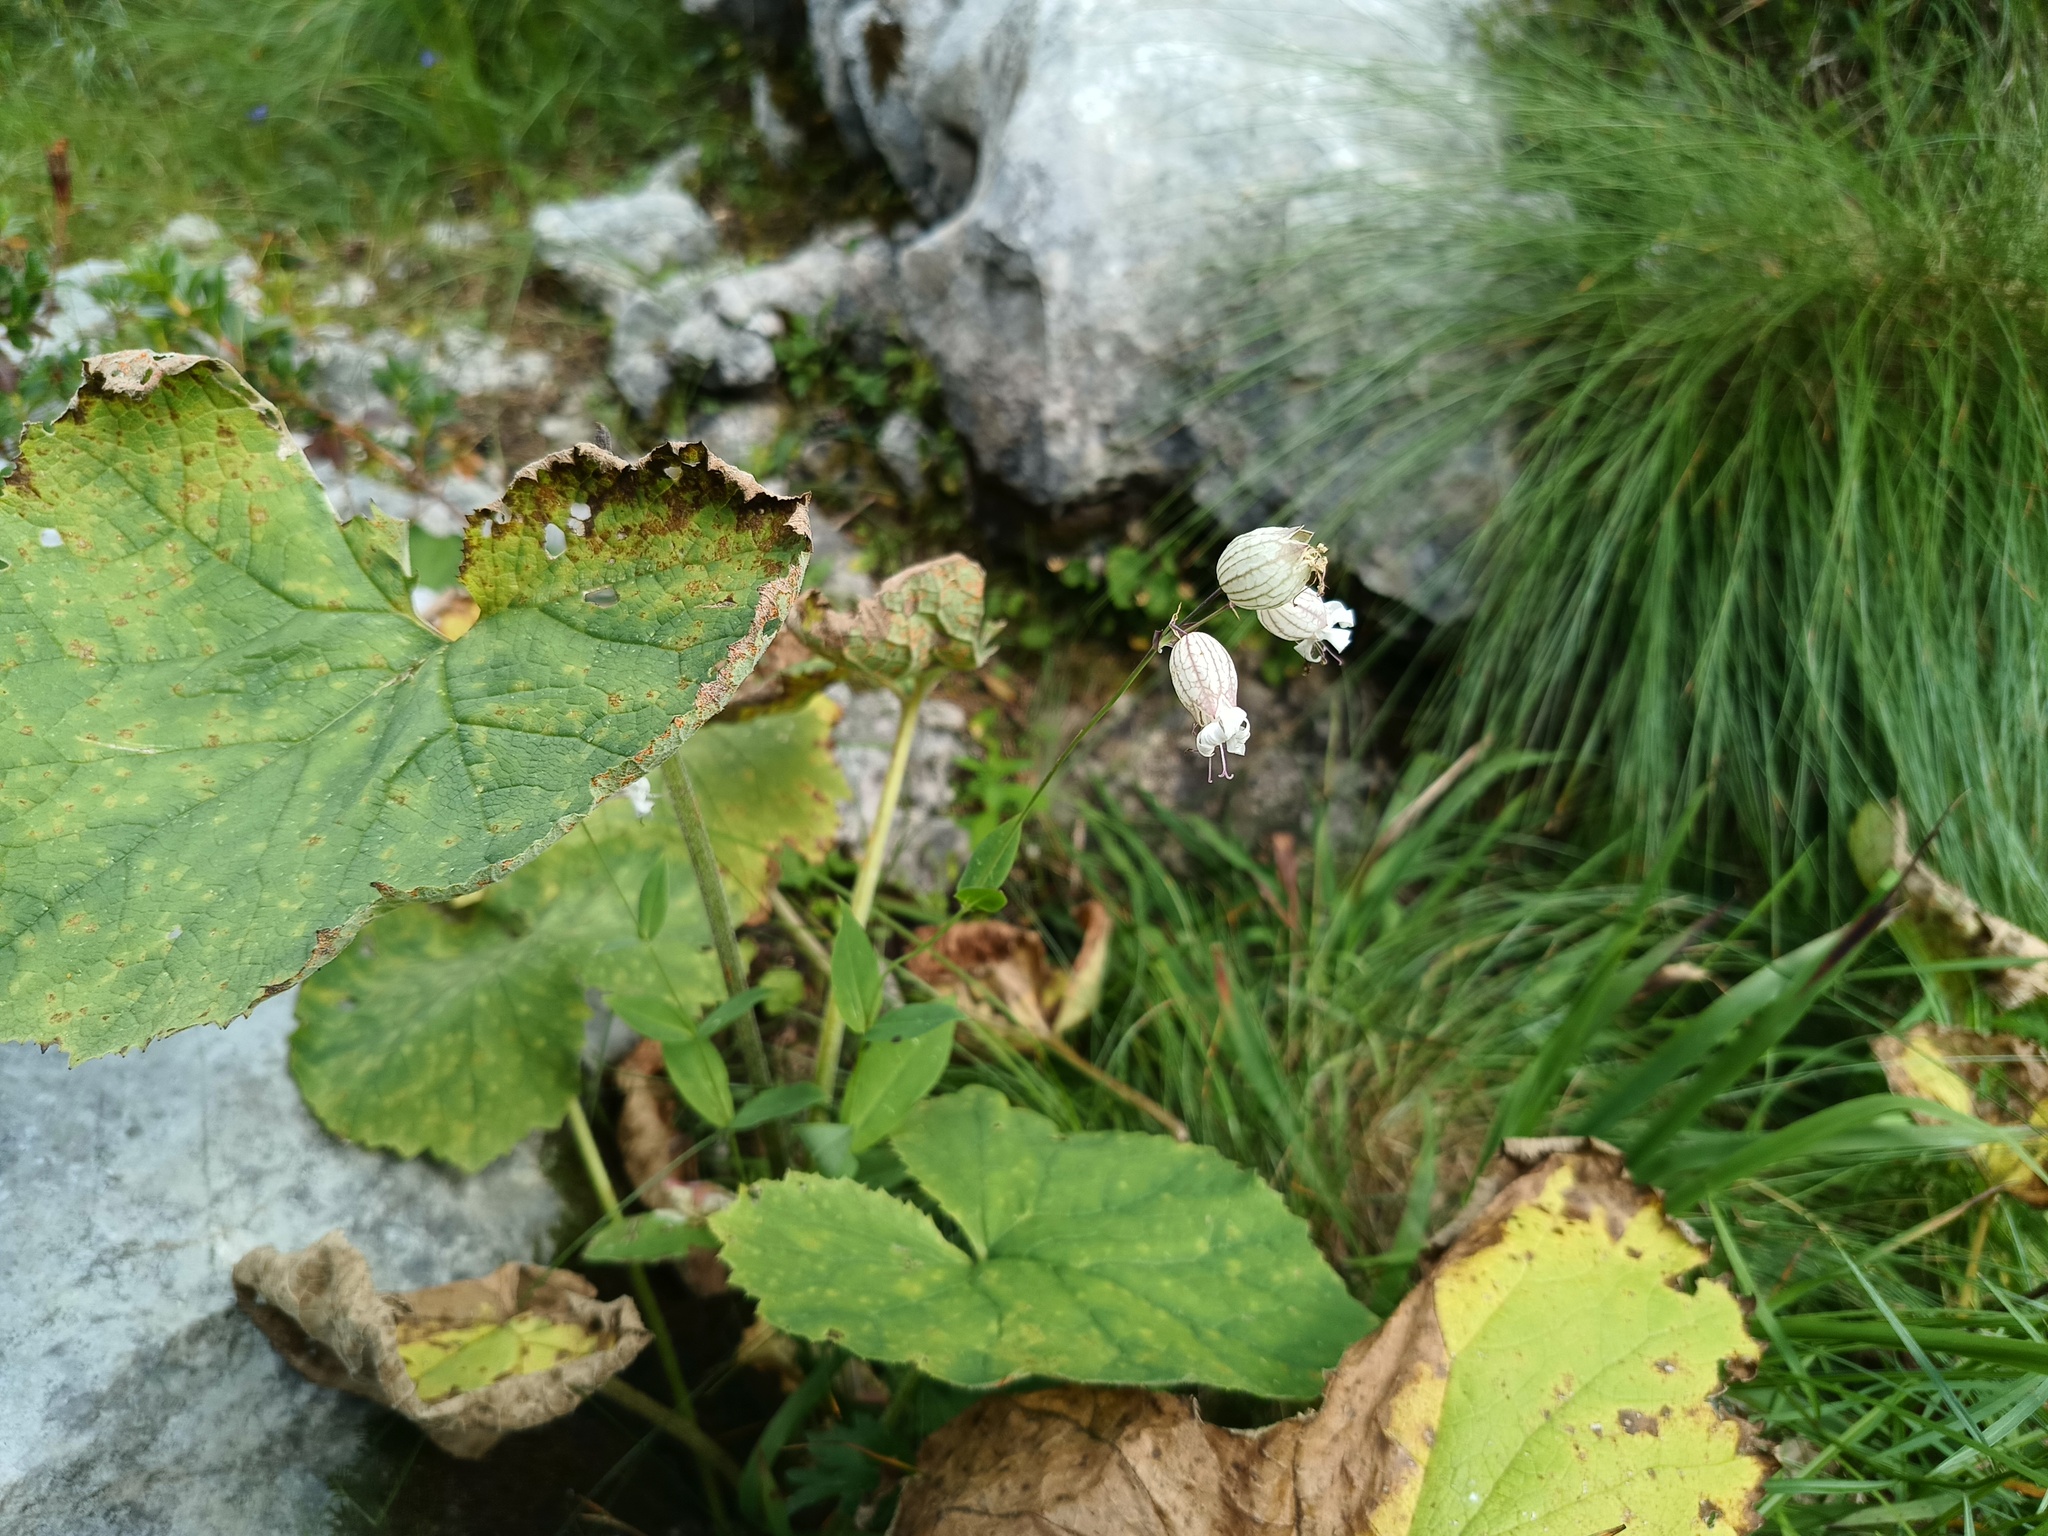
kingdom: Plantae
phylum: Tracheophyta
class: Magnoliopsida
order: Caryophyllales
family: Caryophyllaceae
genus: Silene
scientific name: Silene vulgaris
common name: Bladder campion
